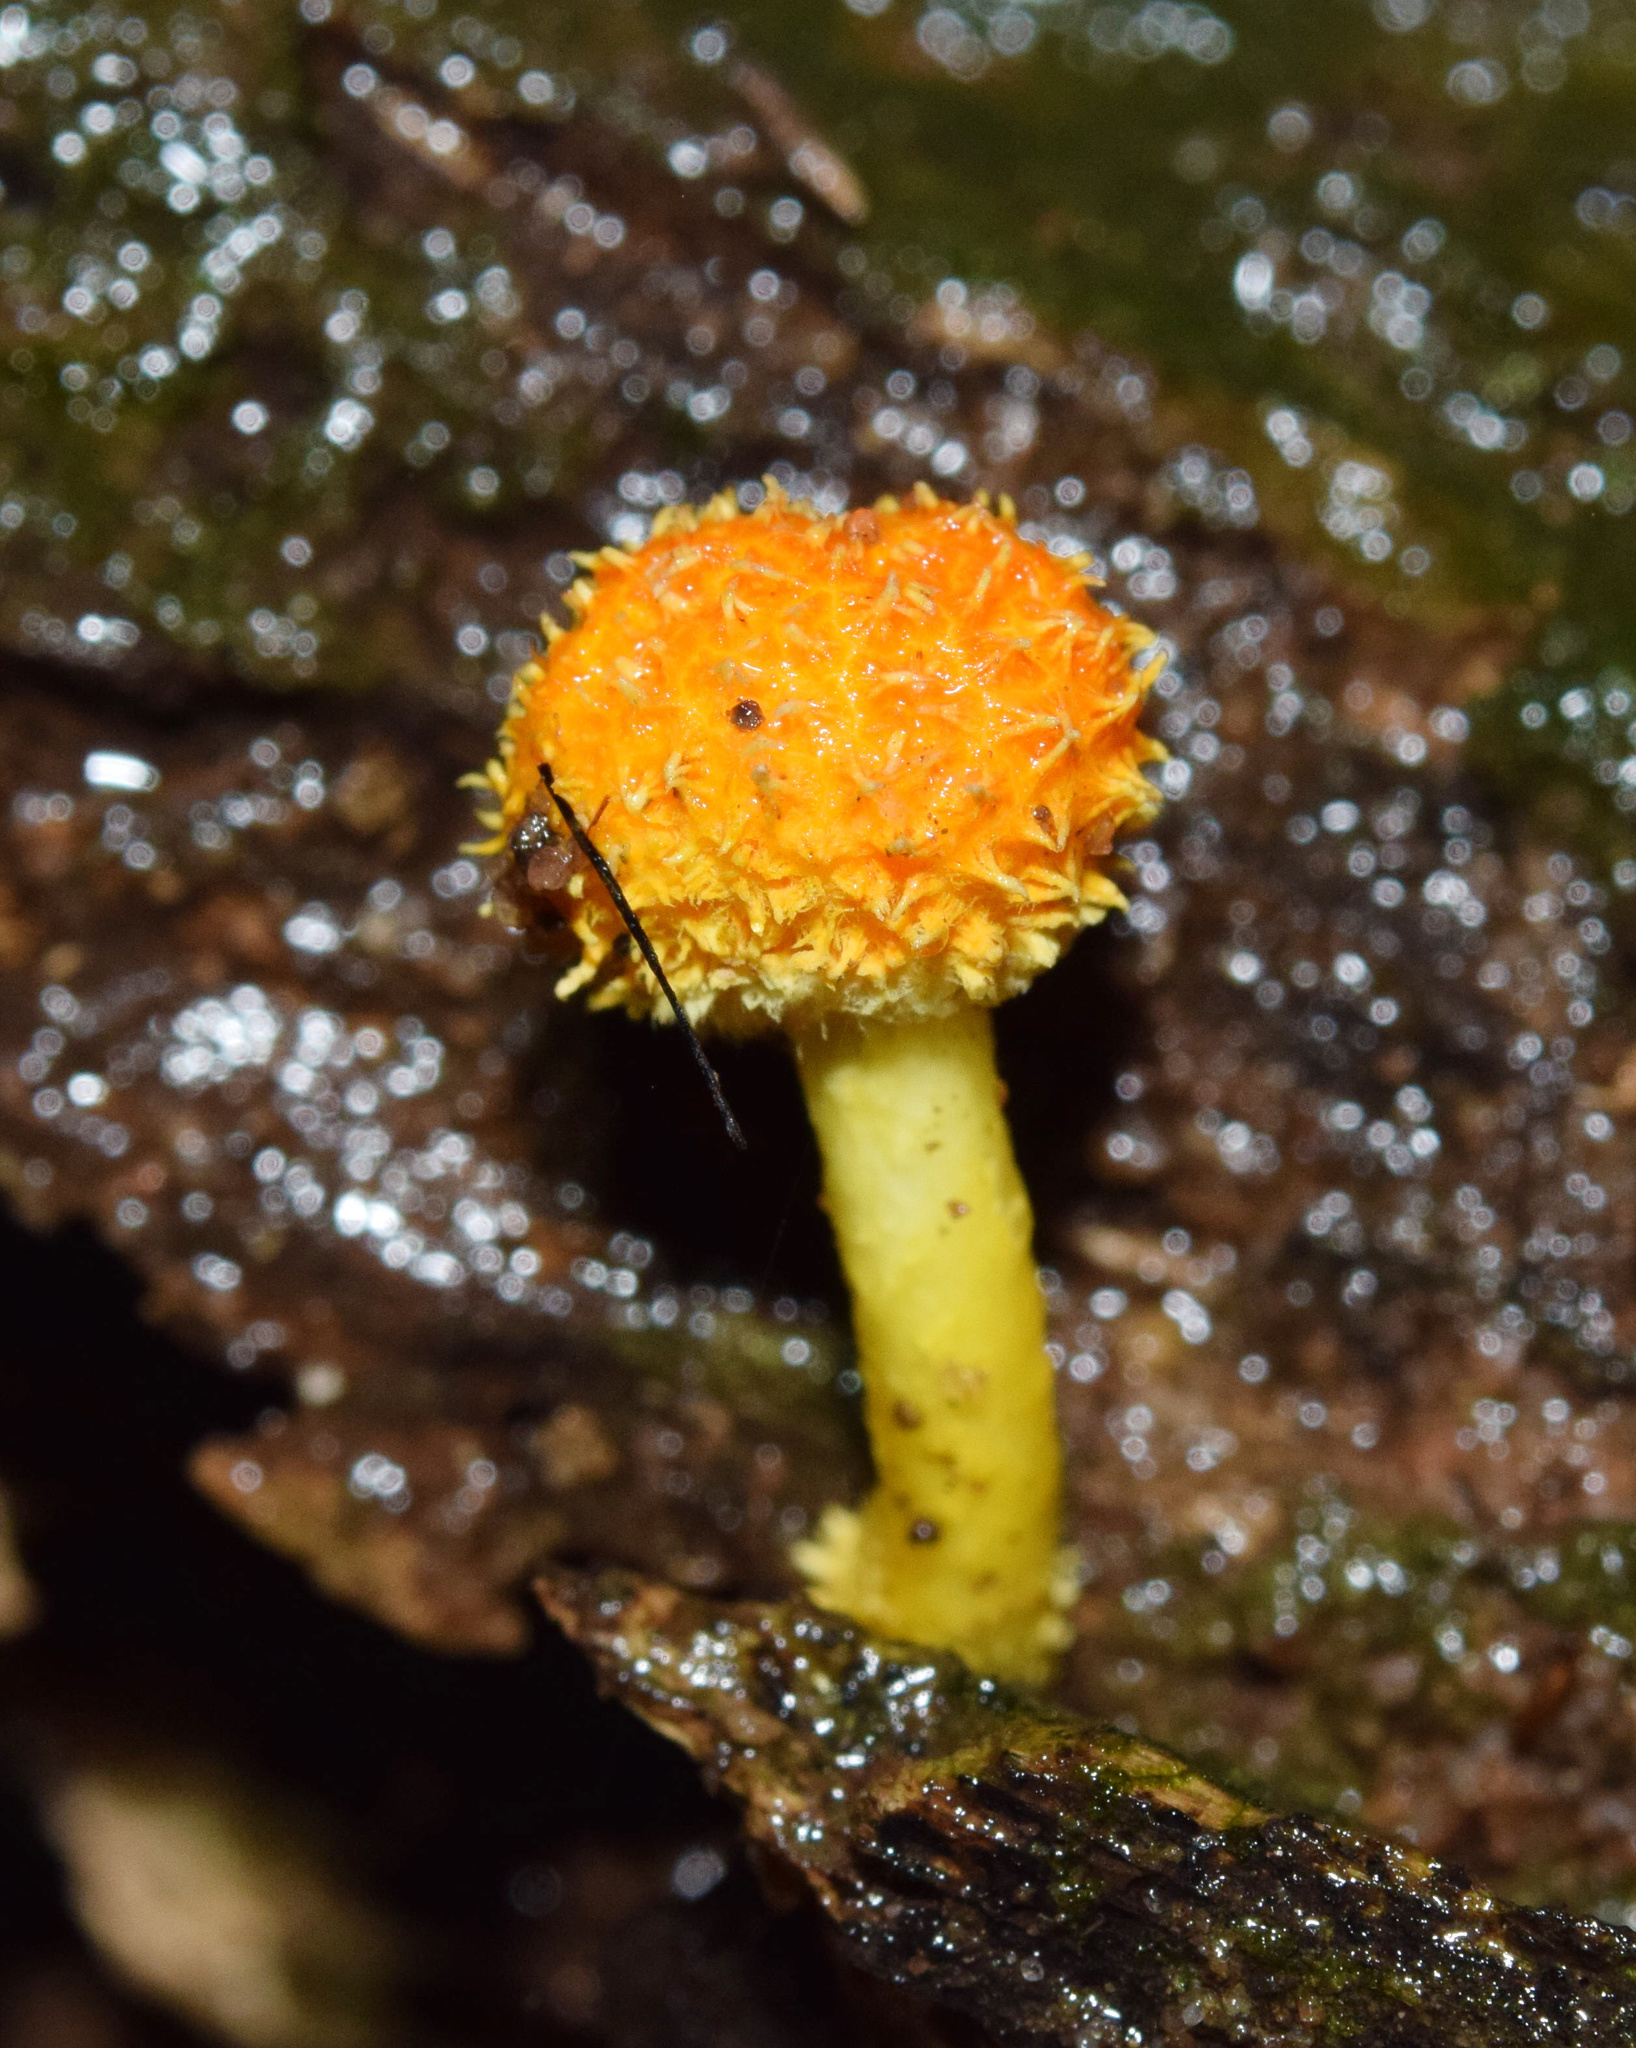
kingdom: Fungi
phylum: Basidiomycota
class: Agaricomycetes
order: Agaricales
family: Physalacriaceae
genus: Cyptotrama
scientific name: Cyptotrama asprata
